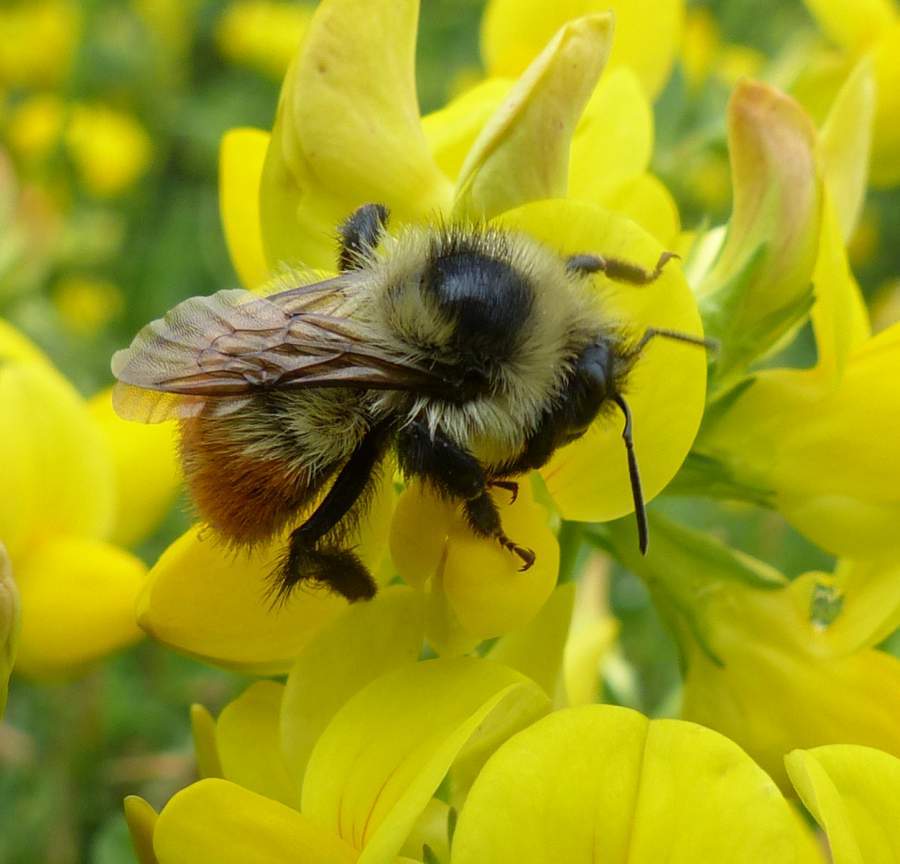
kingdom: Animalia
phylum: Arthropoda
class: Insecta
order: Hymenoptera
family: Apidae
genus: Bombus
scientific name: Bombus rufocinctus
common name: Red-belted bumble bee
